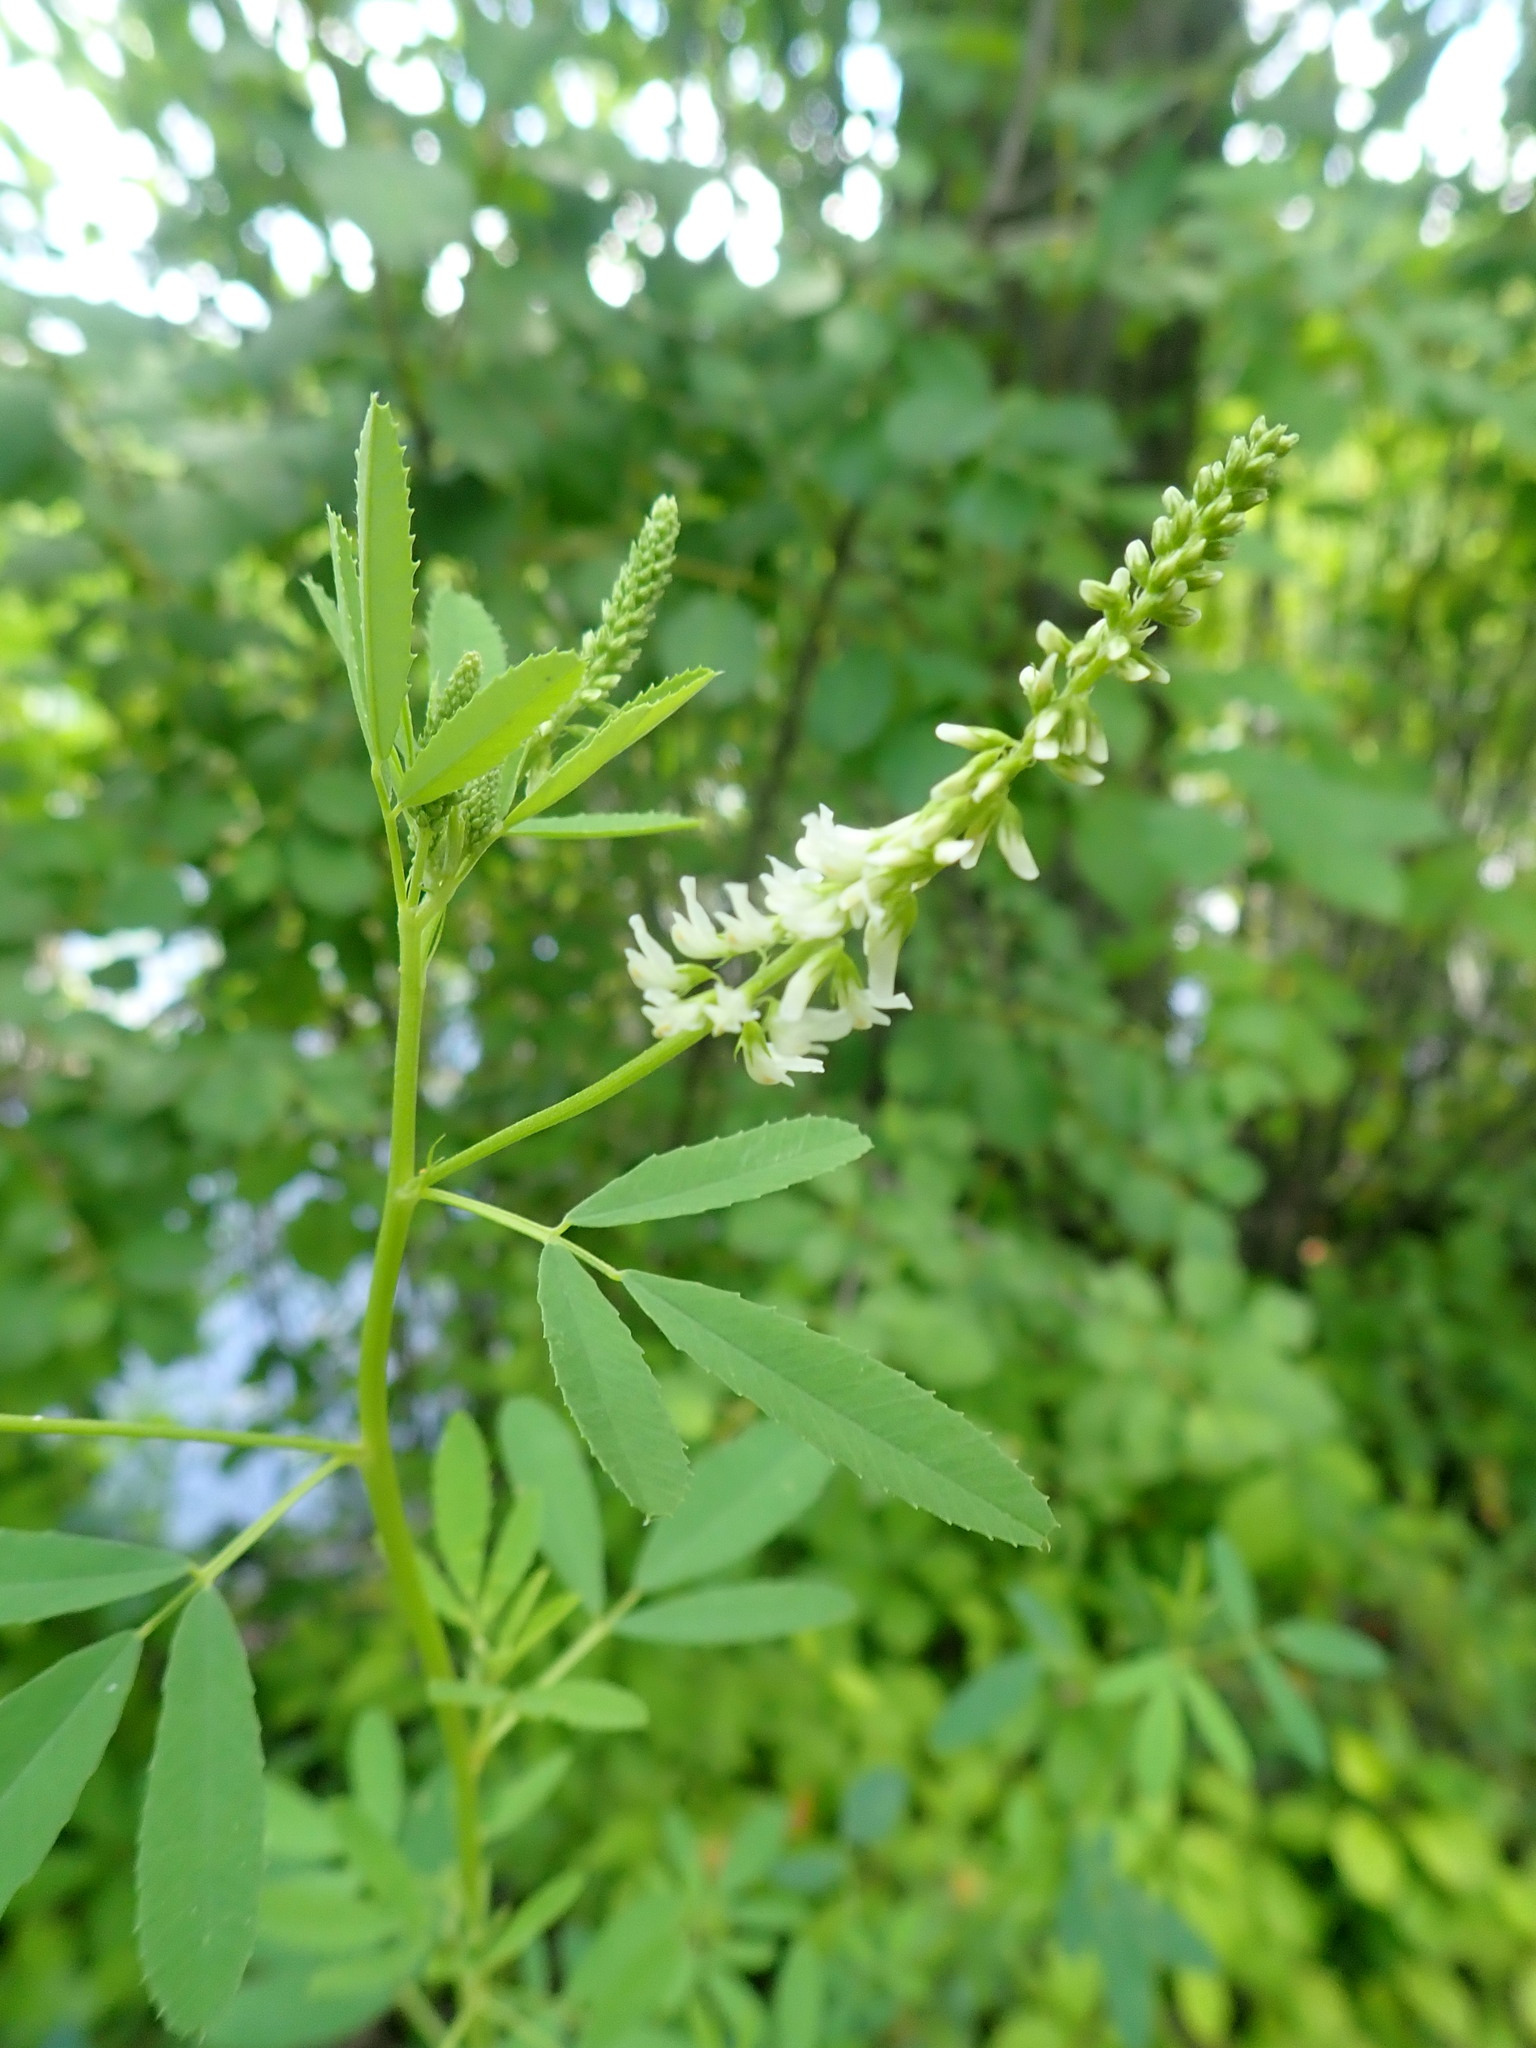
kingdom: Plantae
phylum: Tracheophyta
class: Magnoliopsida
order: Fabales
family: Fabaceae
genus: Melilotus
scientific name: Melilotus albus
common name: White melilot
